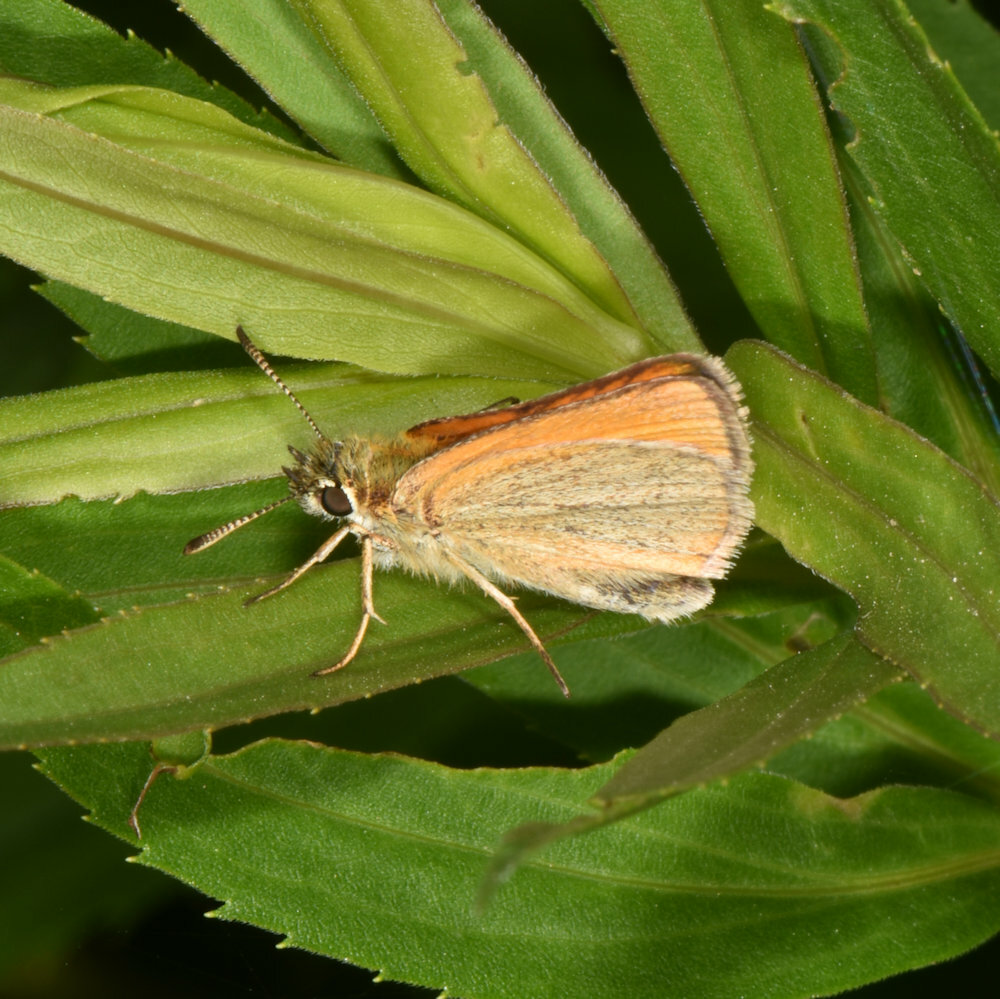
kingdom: Animalia
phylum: Arthropoda
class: Insecta
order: Lepidoptera
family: Hesperiidae
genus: Thymelicus
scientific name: Thymelicus lineola
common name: Essex skipper
